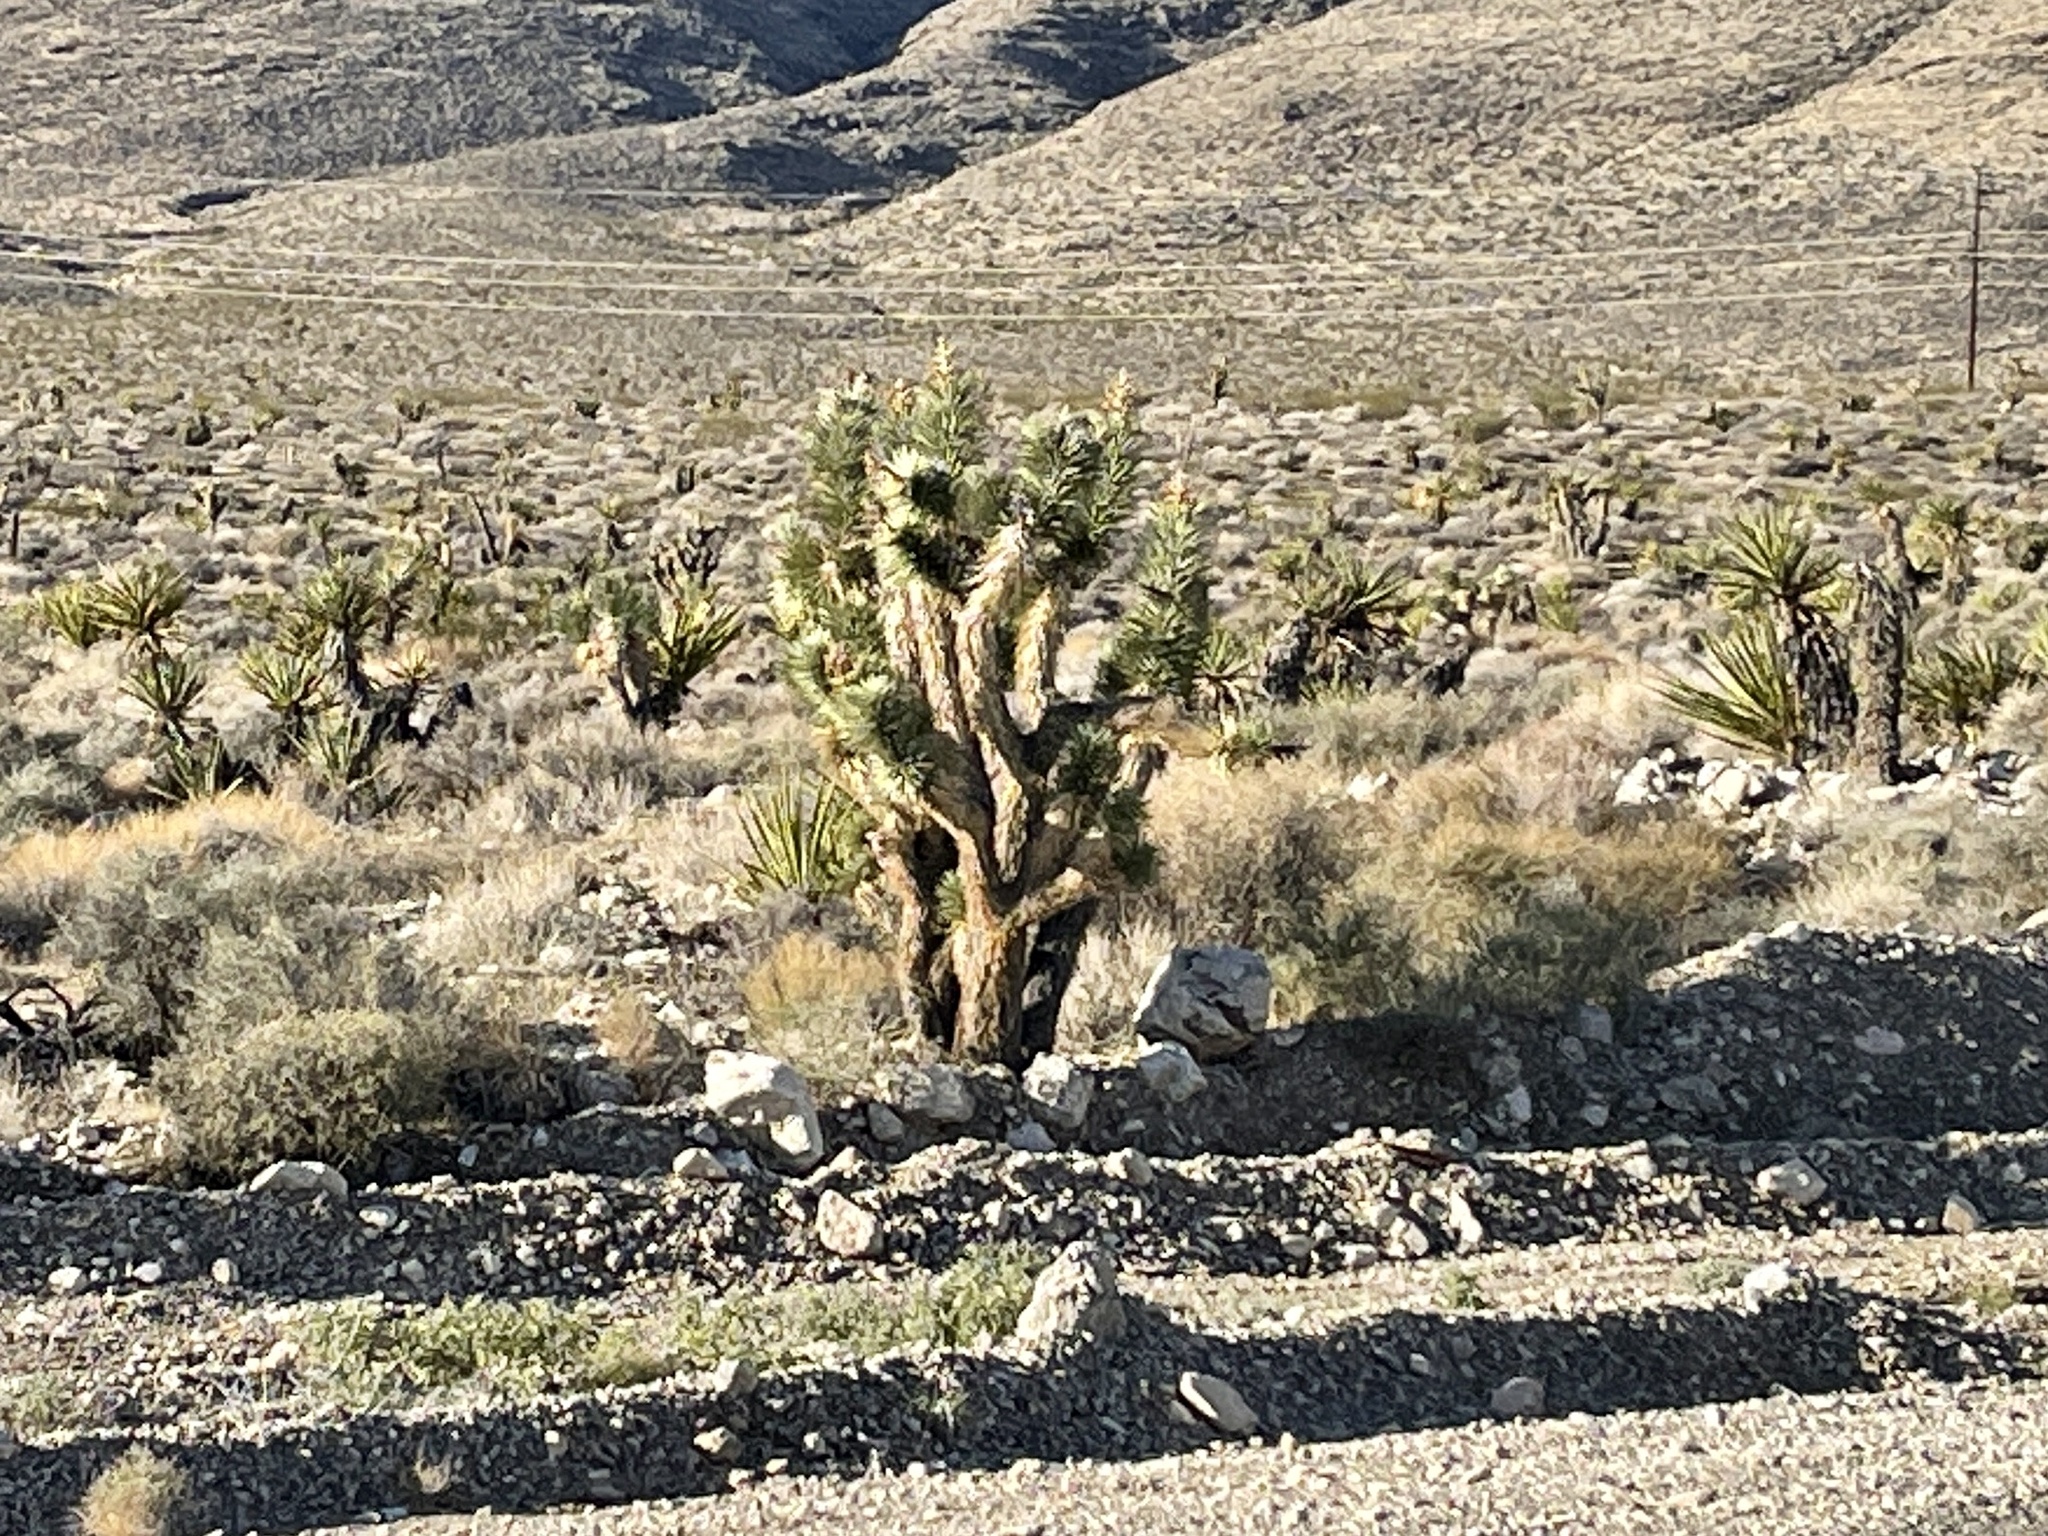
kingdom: Plantae
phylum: Tracheophyta
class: Liliopsida
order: Asparagales
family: Asparagaceae
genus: Yucca
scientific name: Yucca brevifolia
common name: Joshua tree
